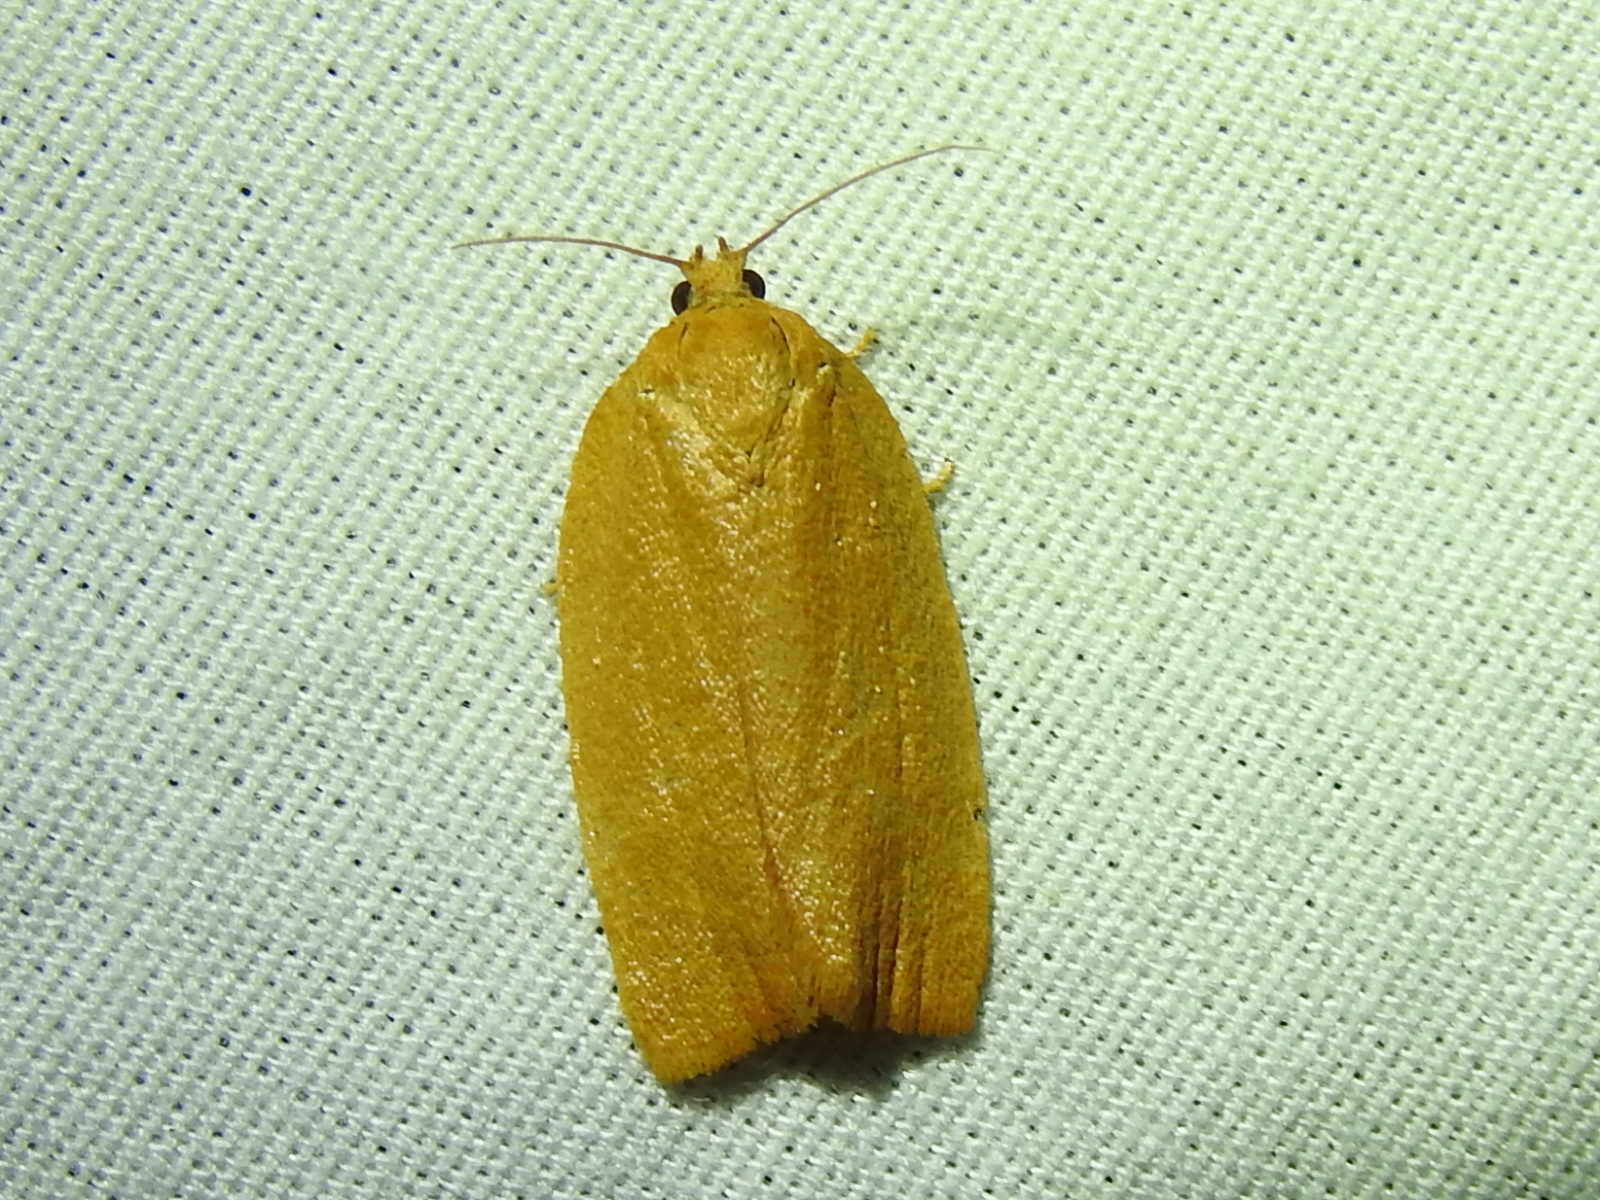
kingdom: Animalia
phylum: Arthropoda
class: Insecta
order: Lepidoptera
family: Tortricidae
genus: Sparganothis
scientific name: Sparganothis distincta
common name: Distinct sparganothis moth
